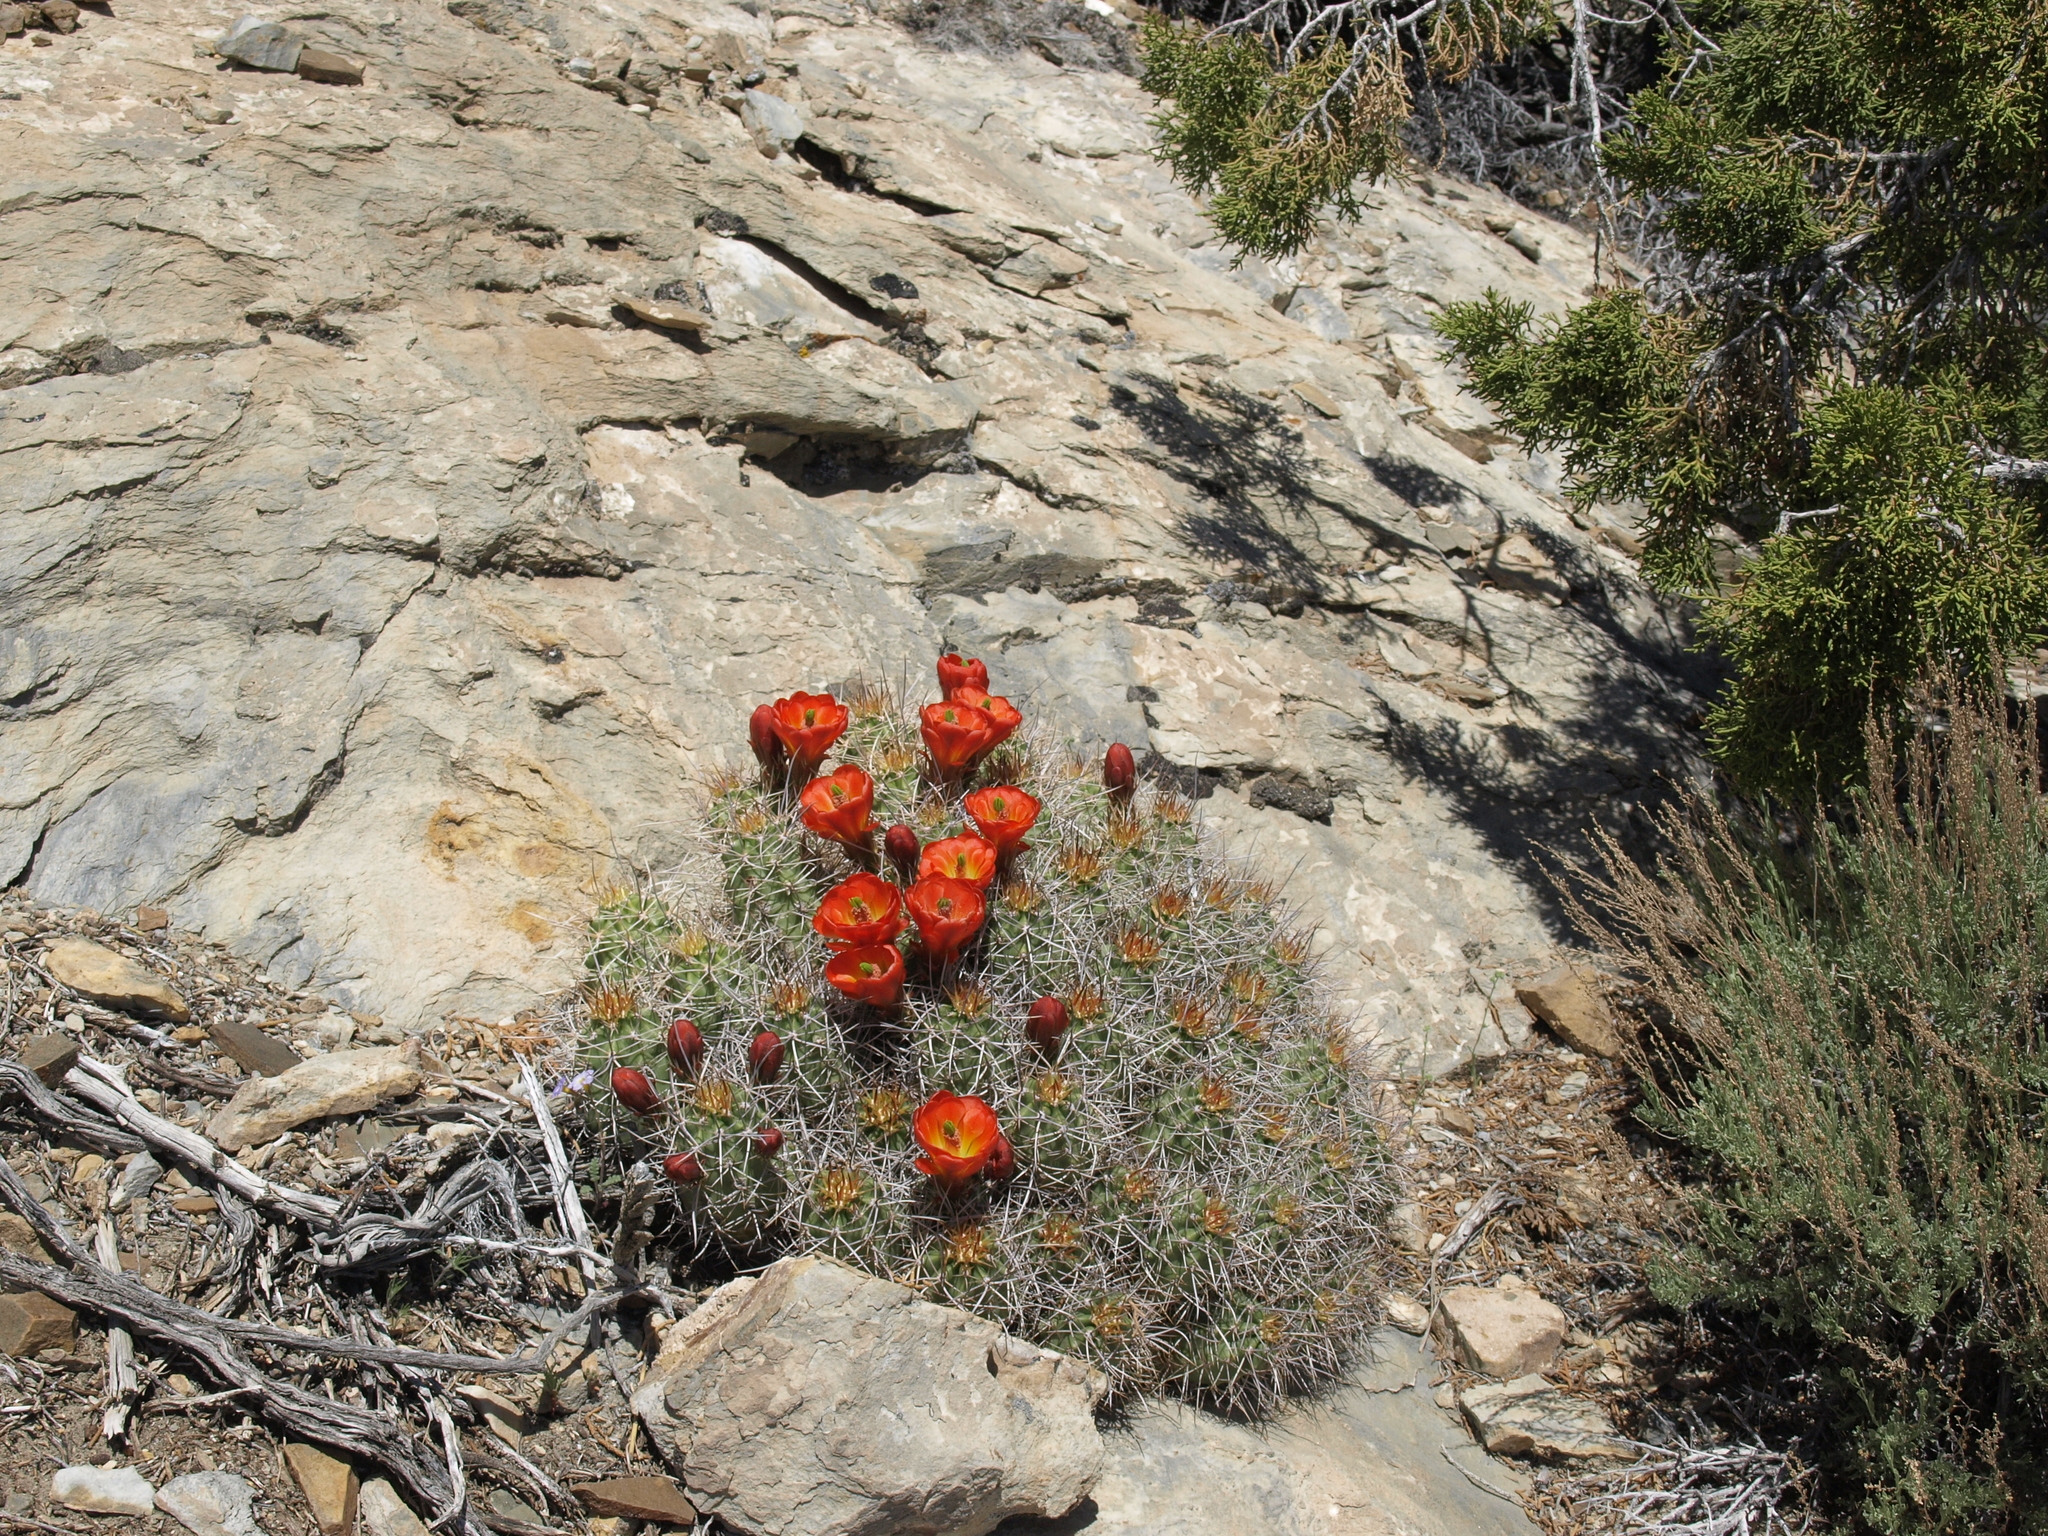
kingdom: Plantae
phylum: Tracheophyta
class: Magnoliopsida
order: Caryophyllales
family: Cactaceae
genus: Echinocereus
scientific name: Echinocereus triglochidiatus
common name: Claretcup hedgehog
